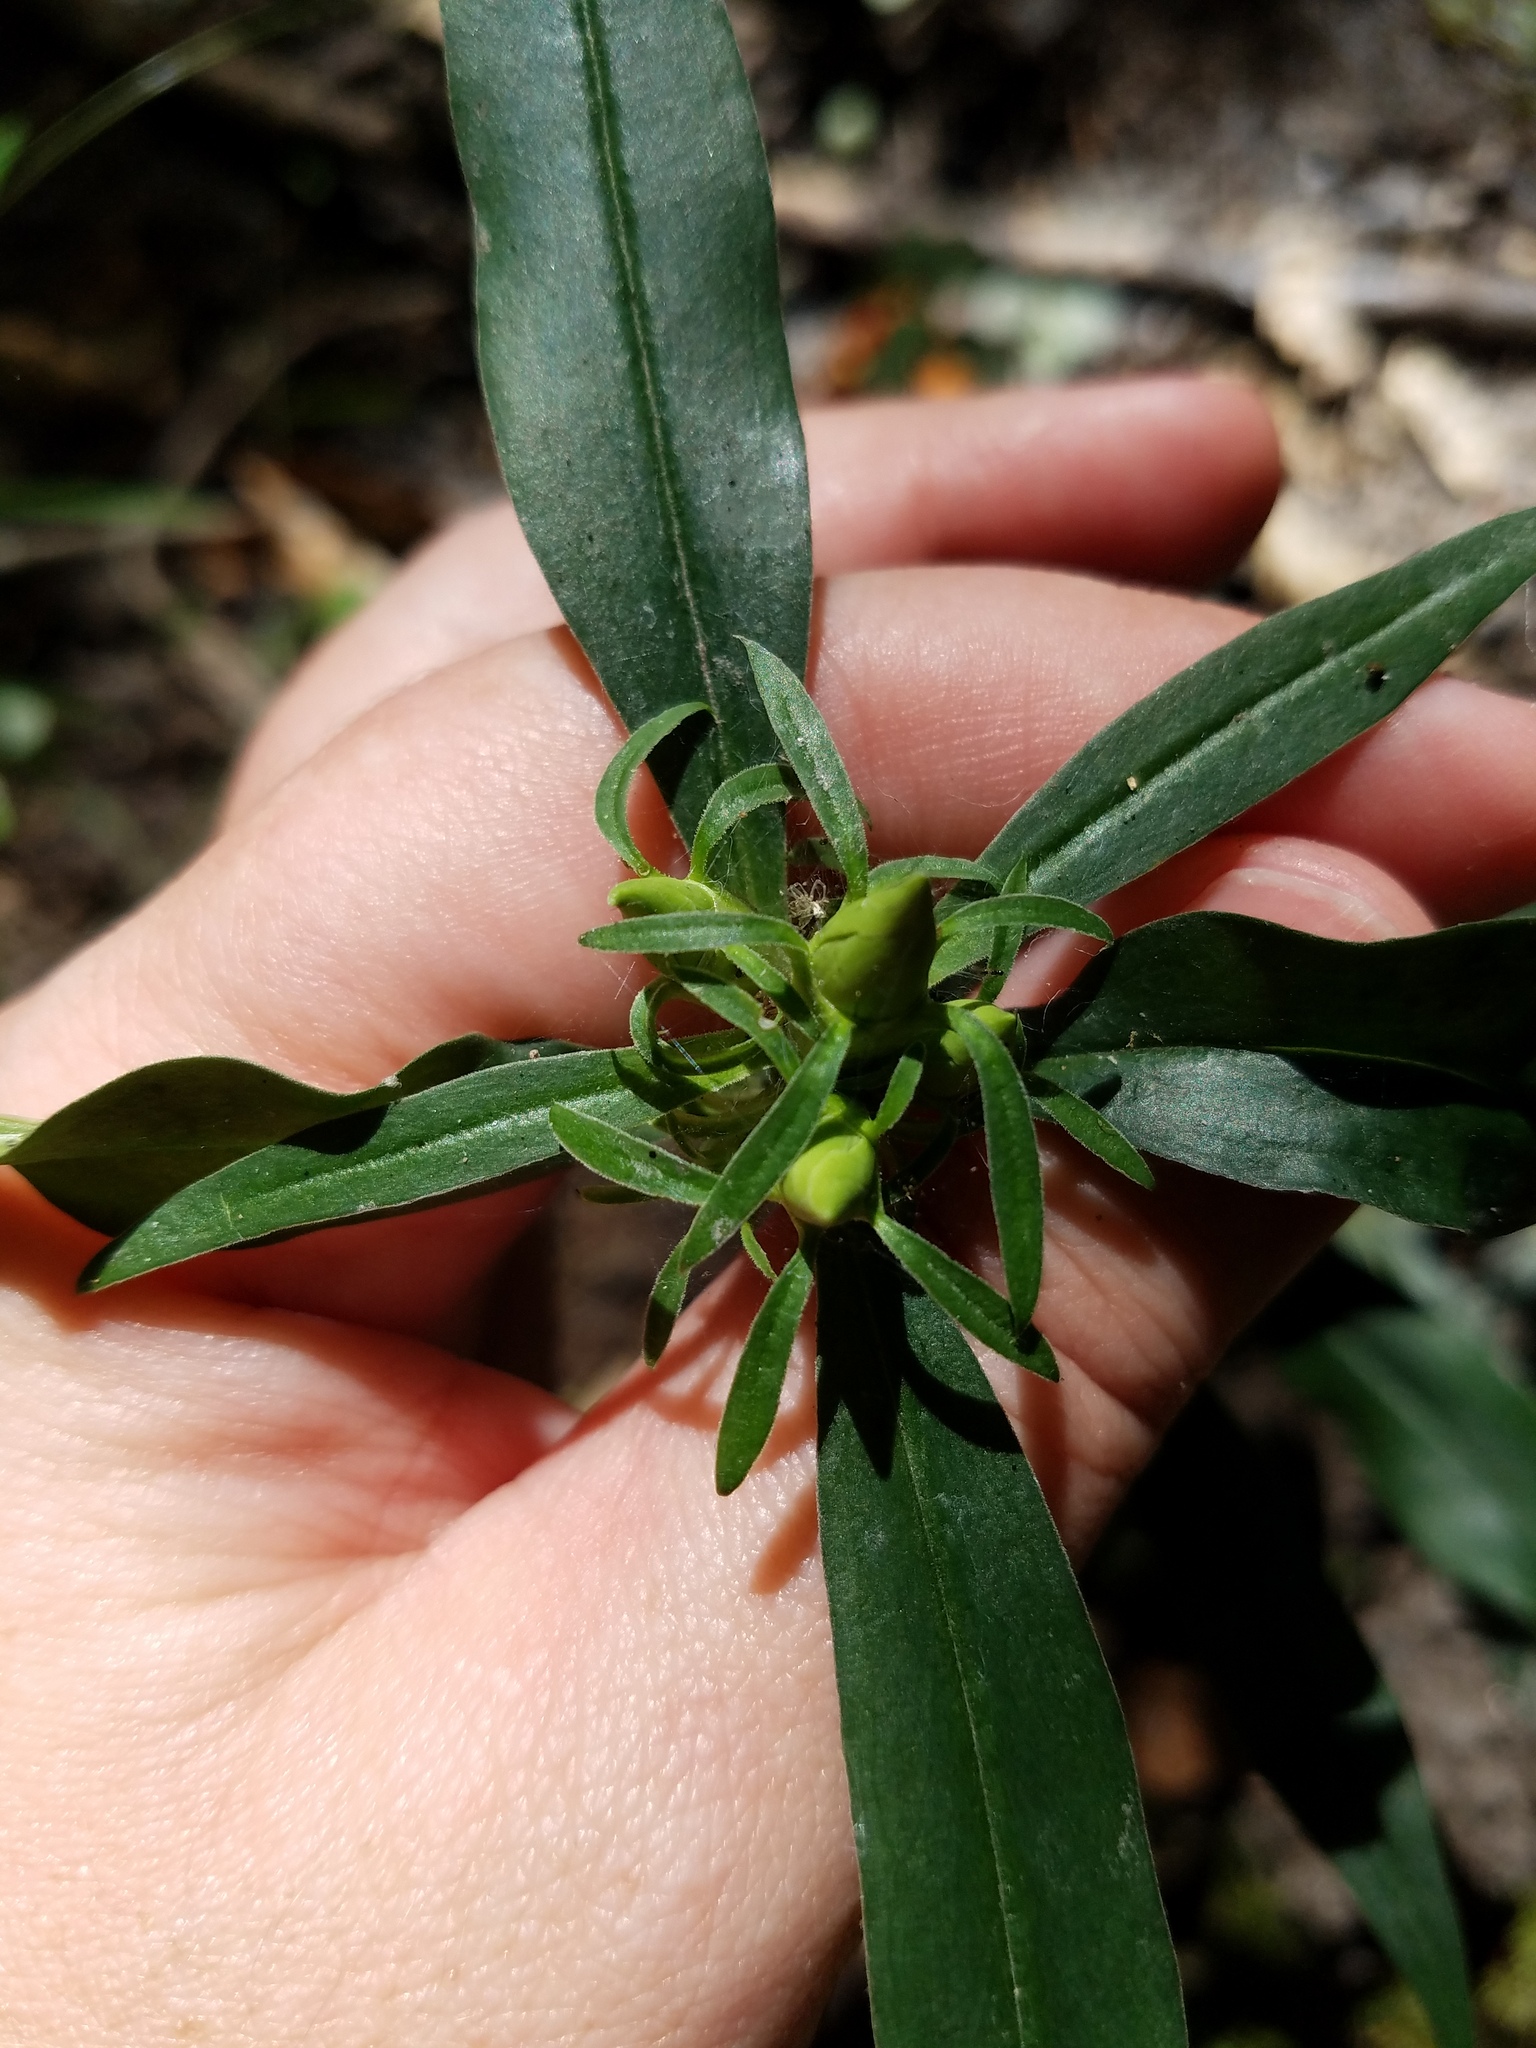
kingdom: Plantae
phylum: Tracheophyta
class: Magnoliopsida
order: Gentianales
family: Gentianaceae
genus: Gentiana
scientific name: Gentiana saponaria
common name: Soapwort gentian
